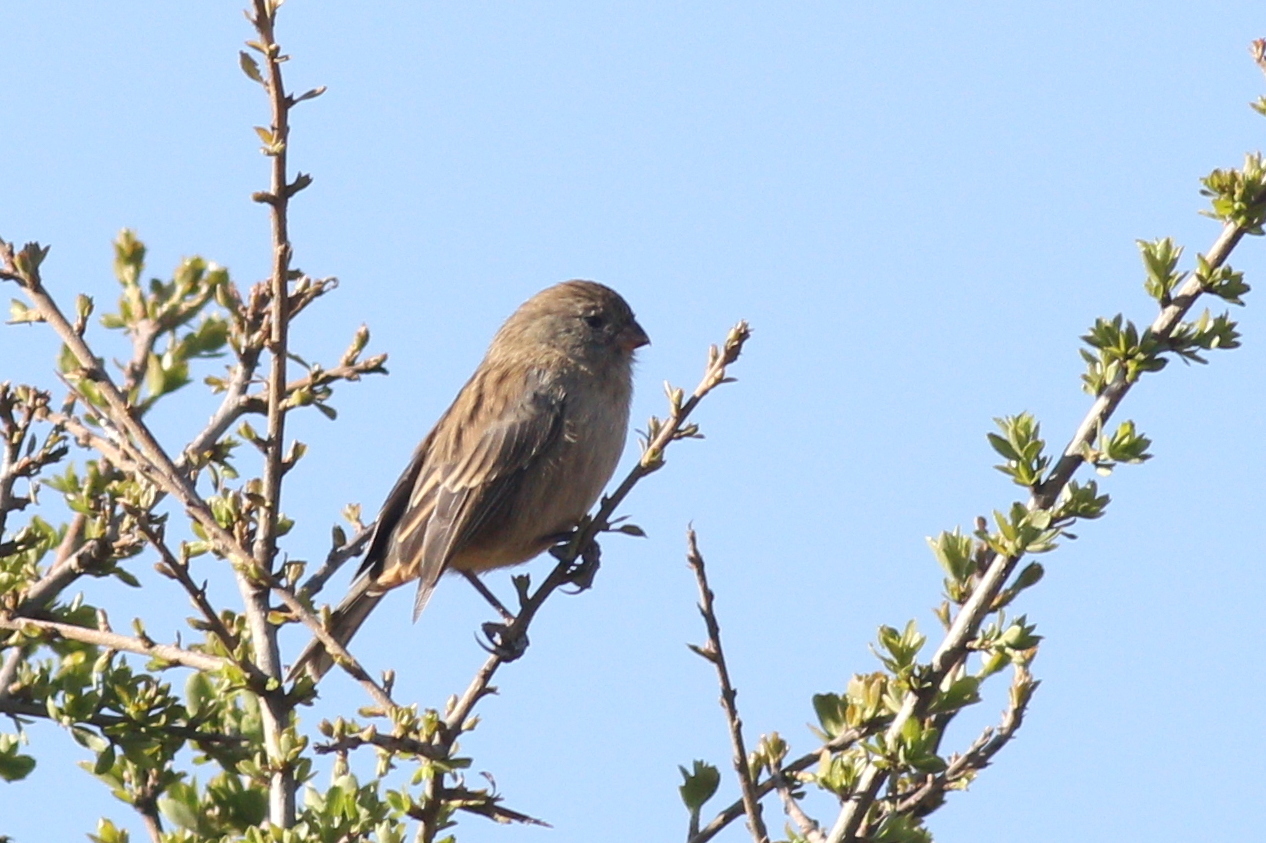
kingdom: Animalia
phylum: Chordata
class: Aves
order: Passeriformes
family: Thraupidae
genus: Catamenia
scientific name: Catamenia inornata
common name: Plain-colored seedeater
